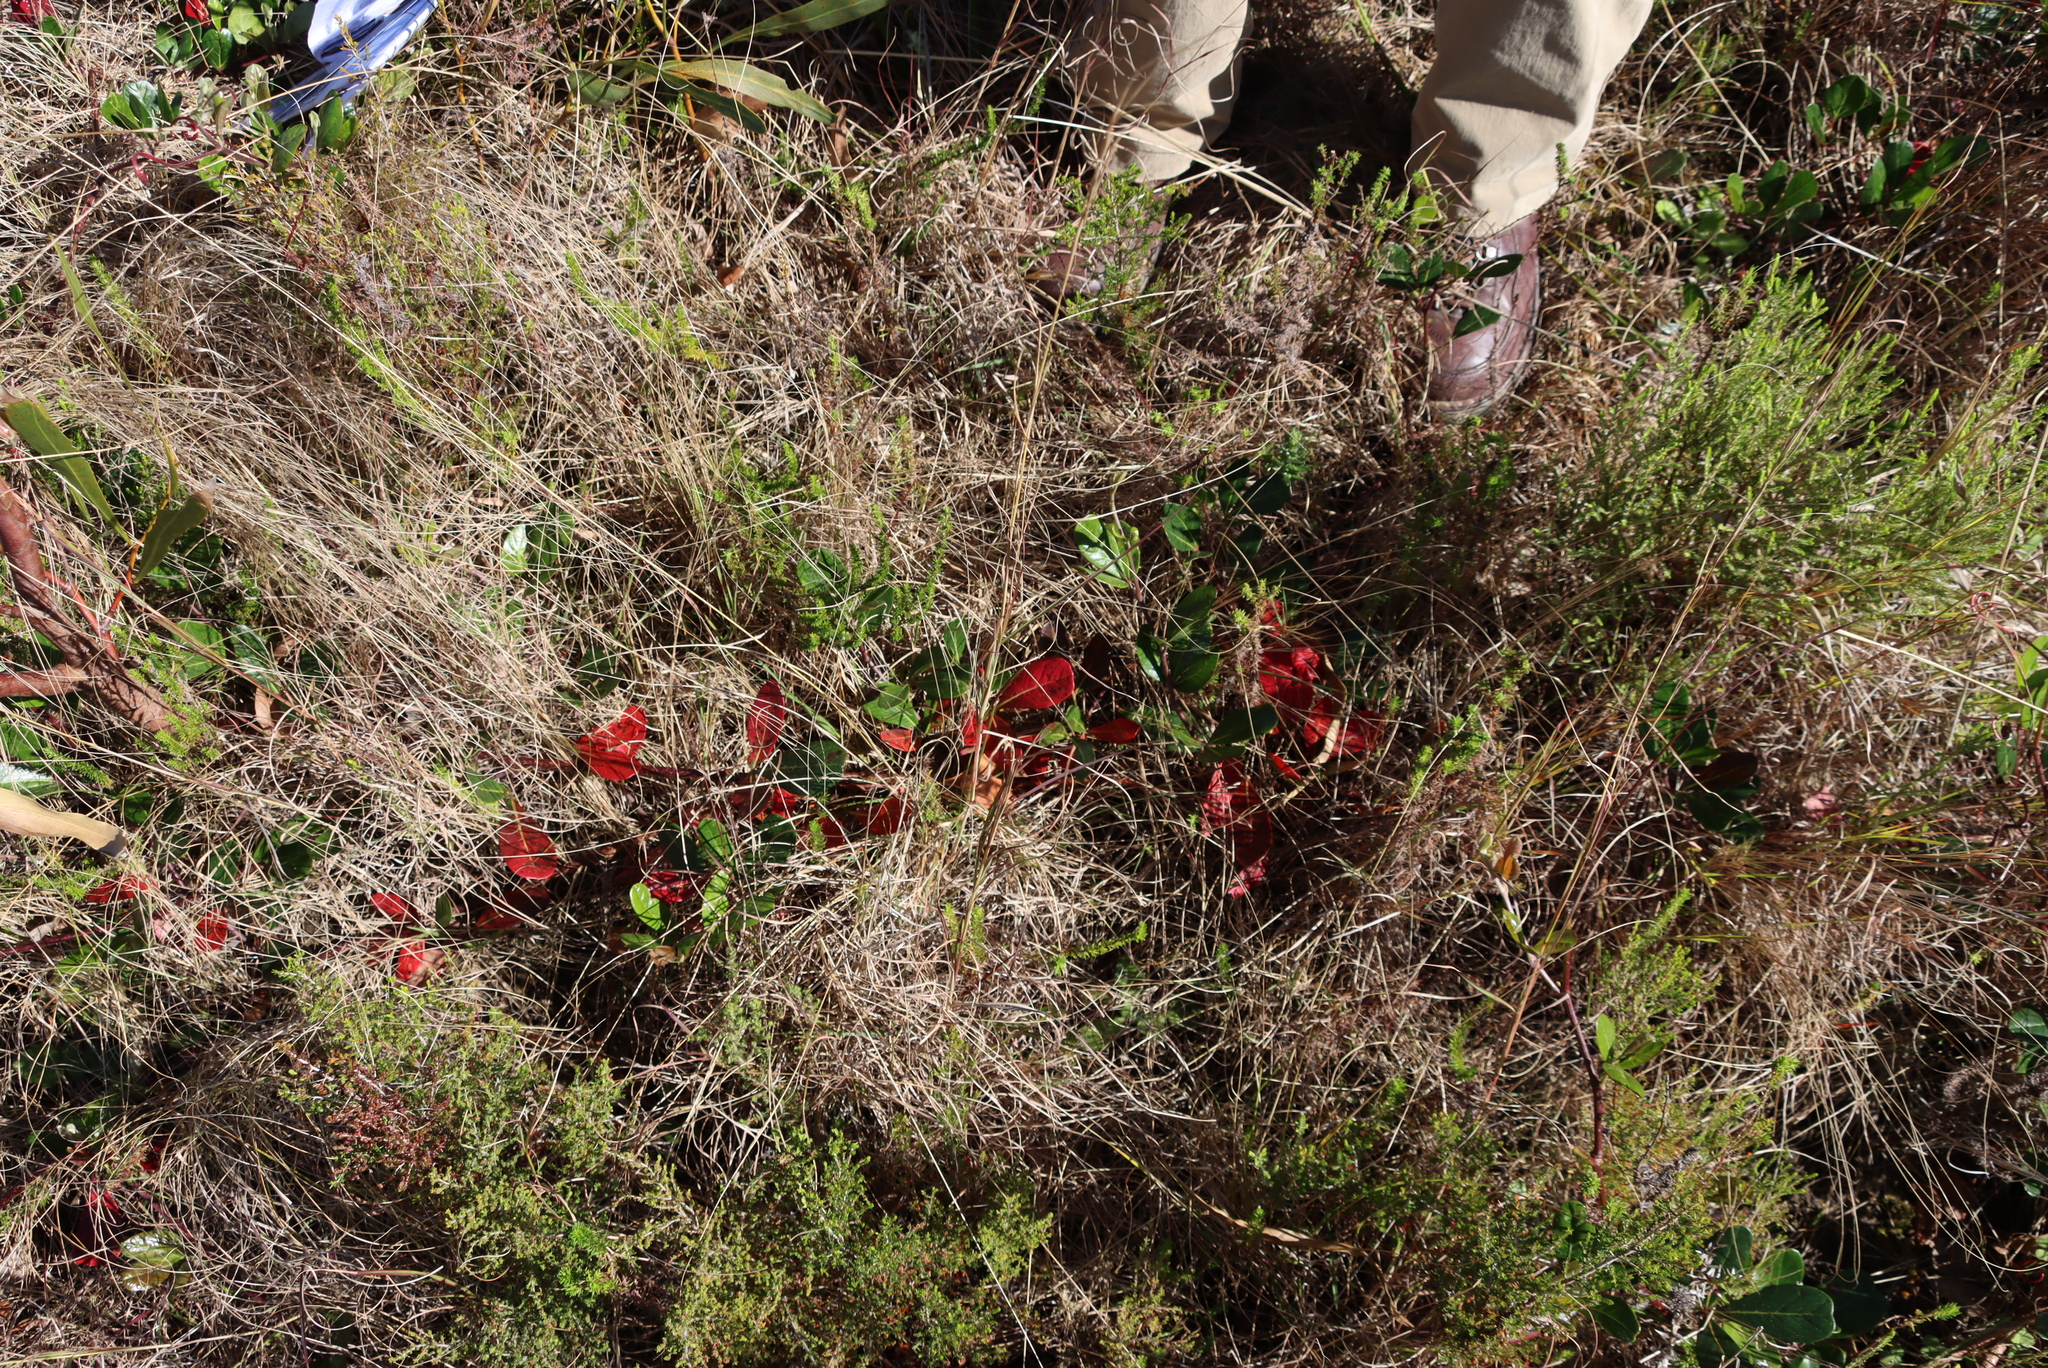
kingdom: Plantae
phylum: Tracheophyta
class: Magnoliopsida
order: Vitales
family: Vitaceae
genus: Rhoicissus
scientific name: Rhoicissus digitata
